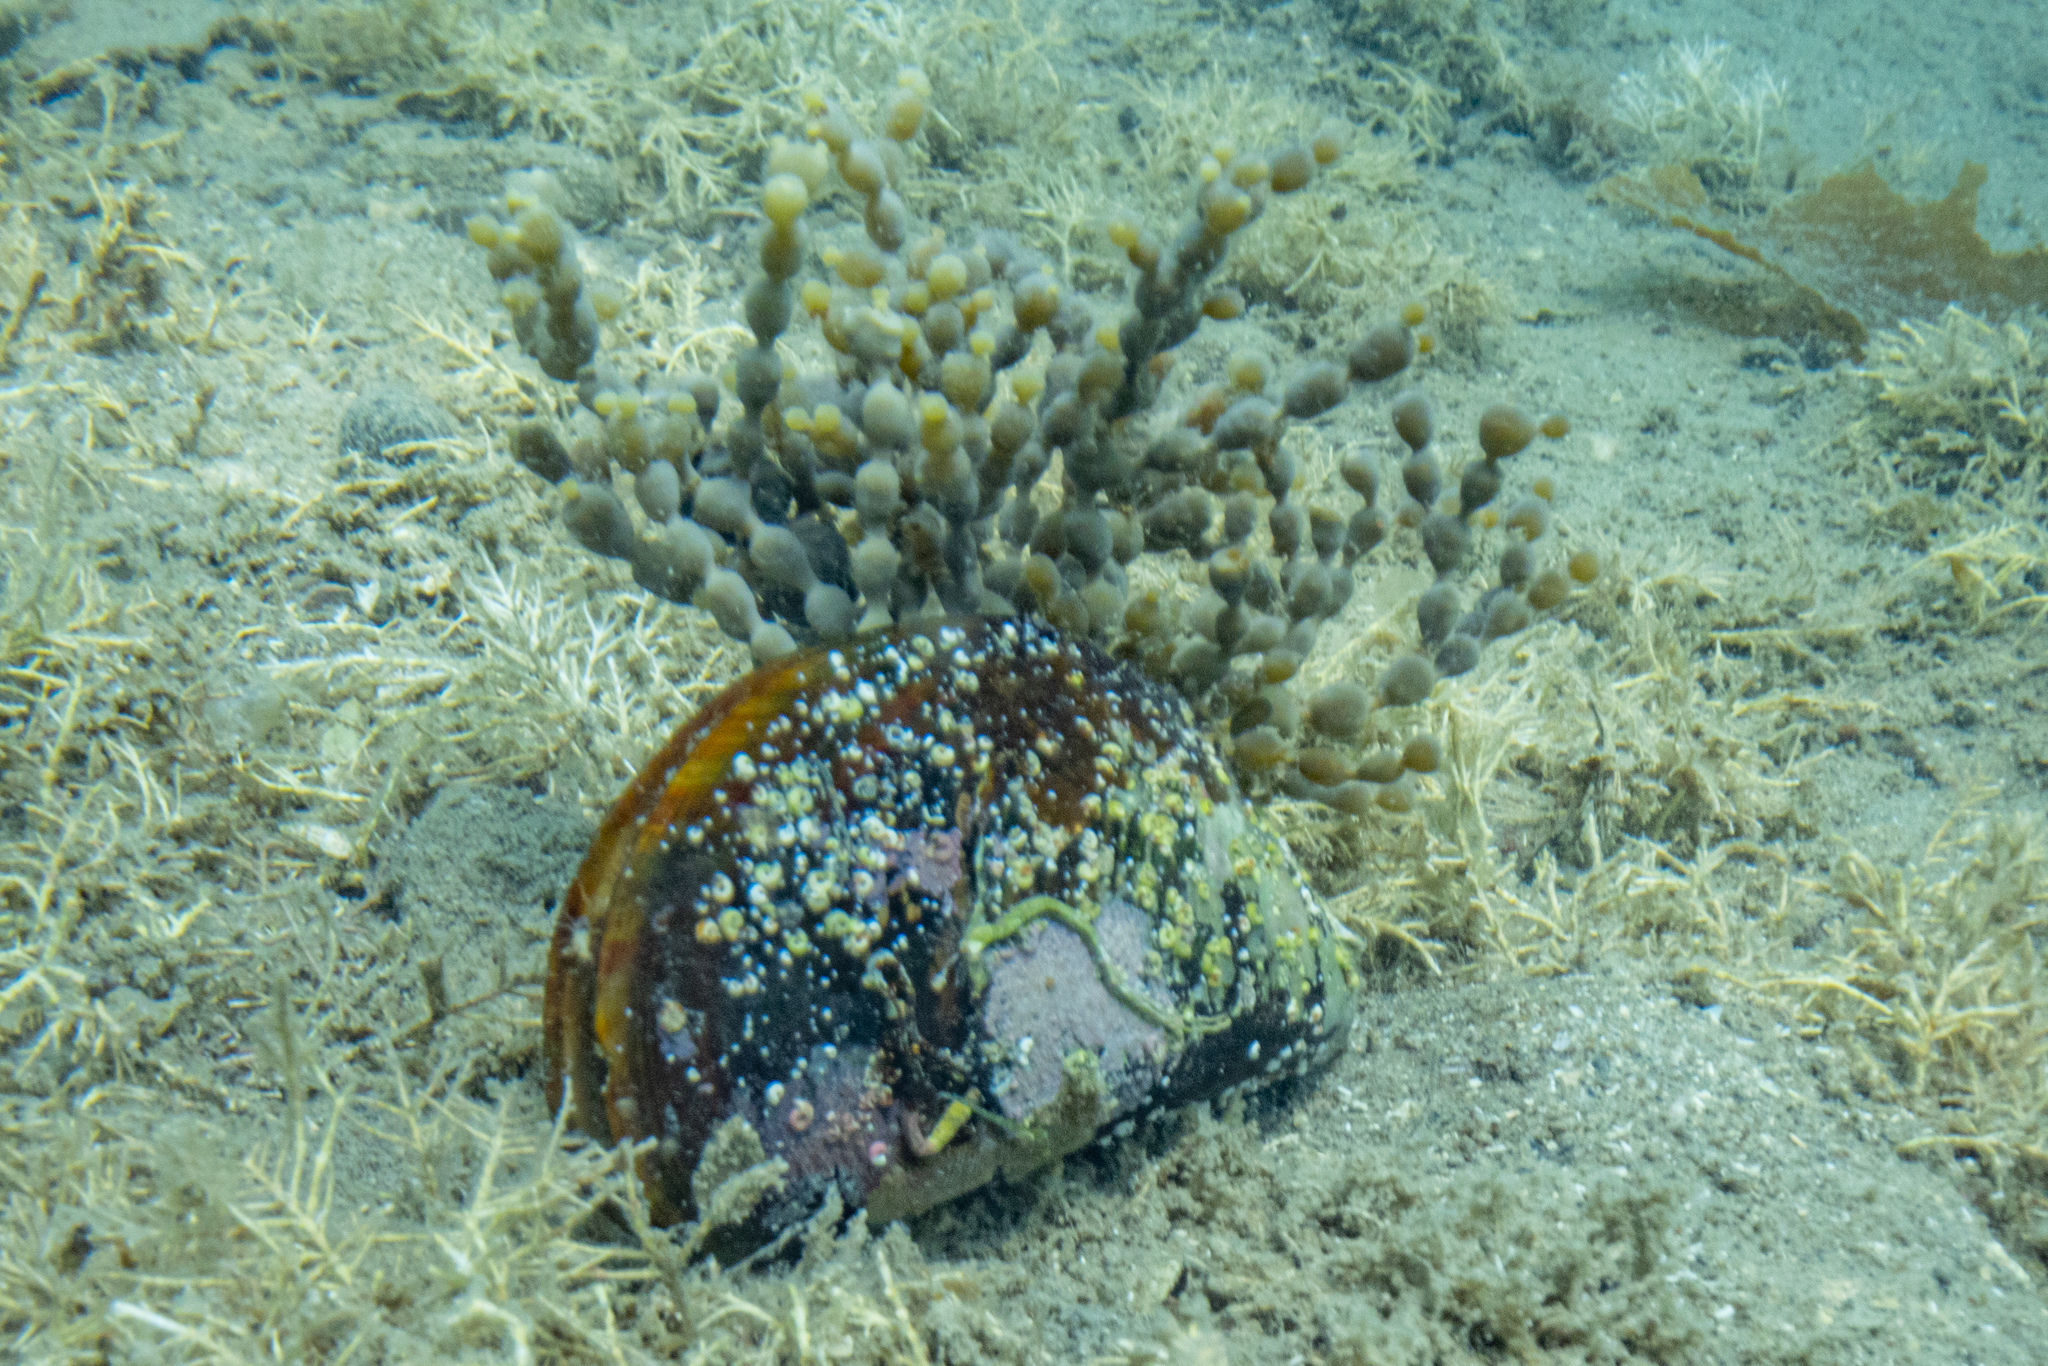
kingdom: Animalia
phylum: Mollusca
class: Bivalvia
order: Mytilida
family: Mytilidae
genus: Perna
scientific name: Perna canaliculus
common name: New zealand greenshelltm
